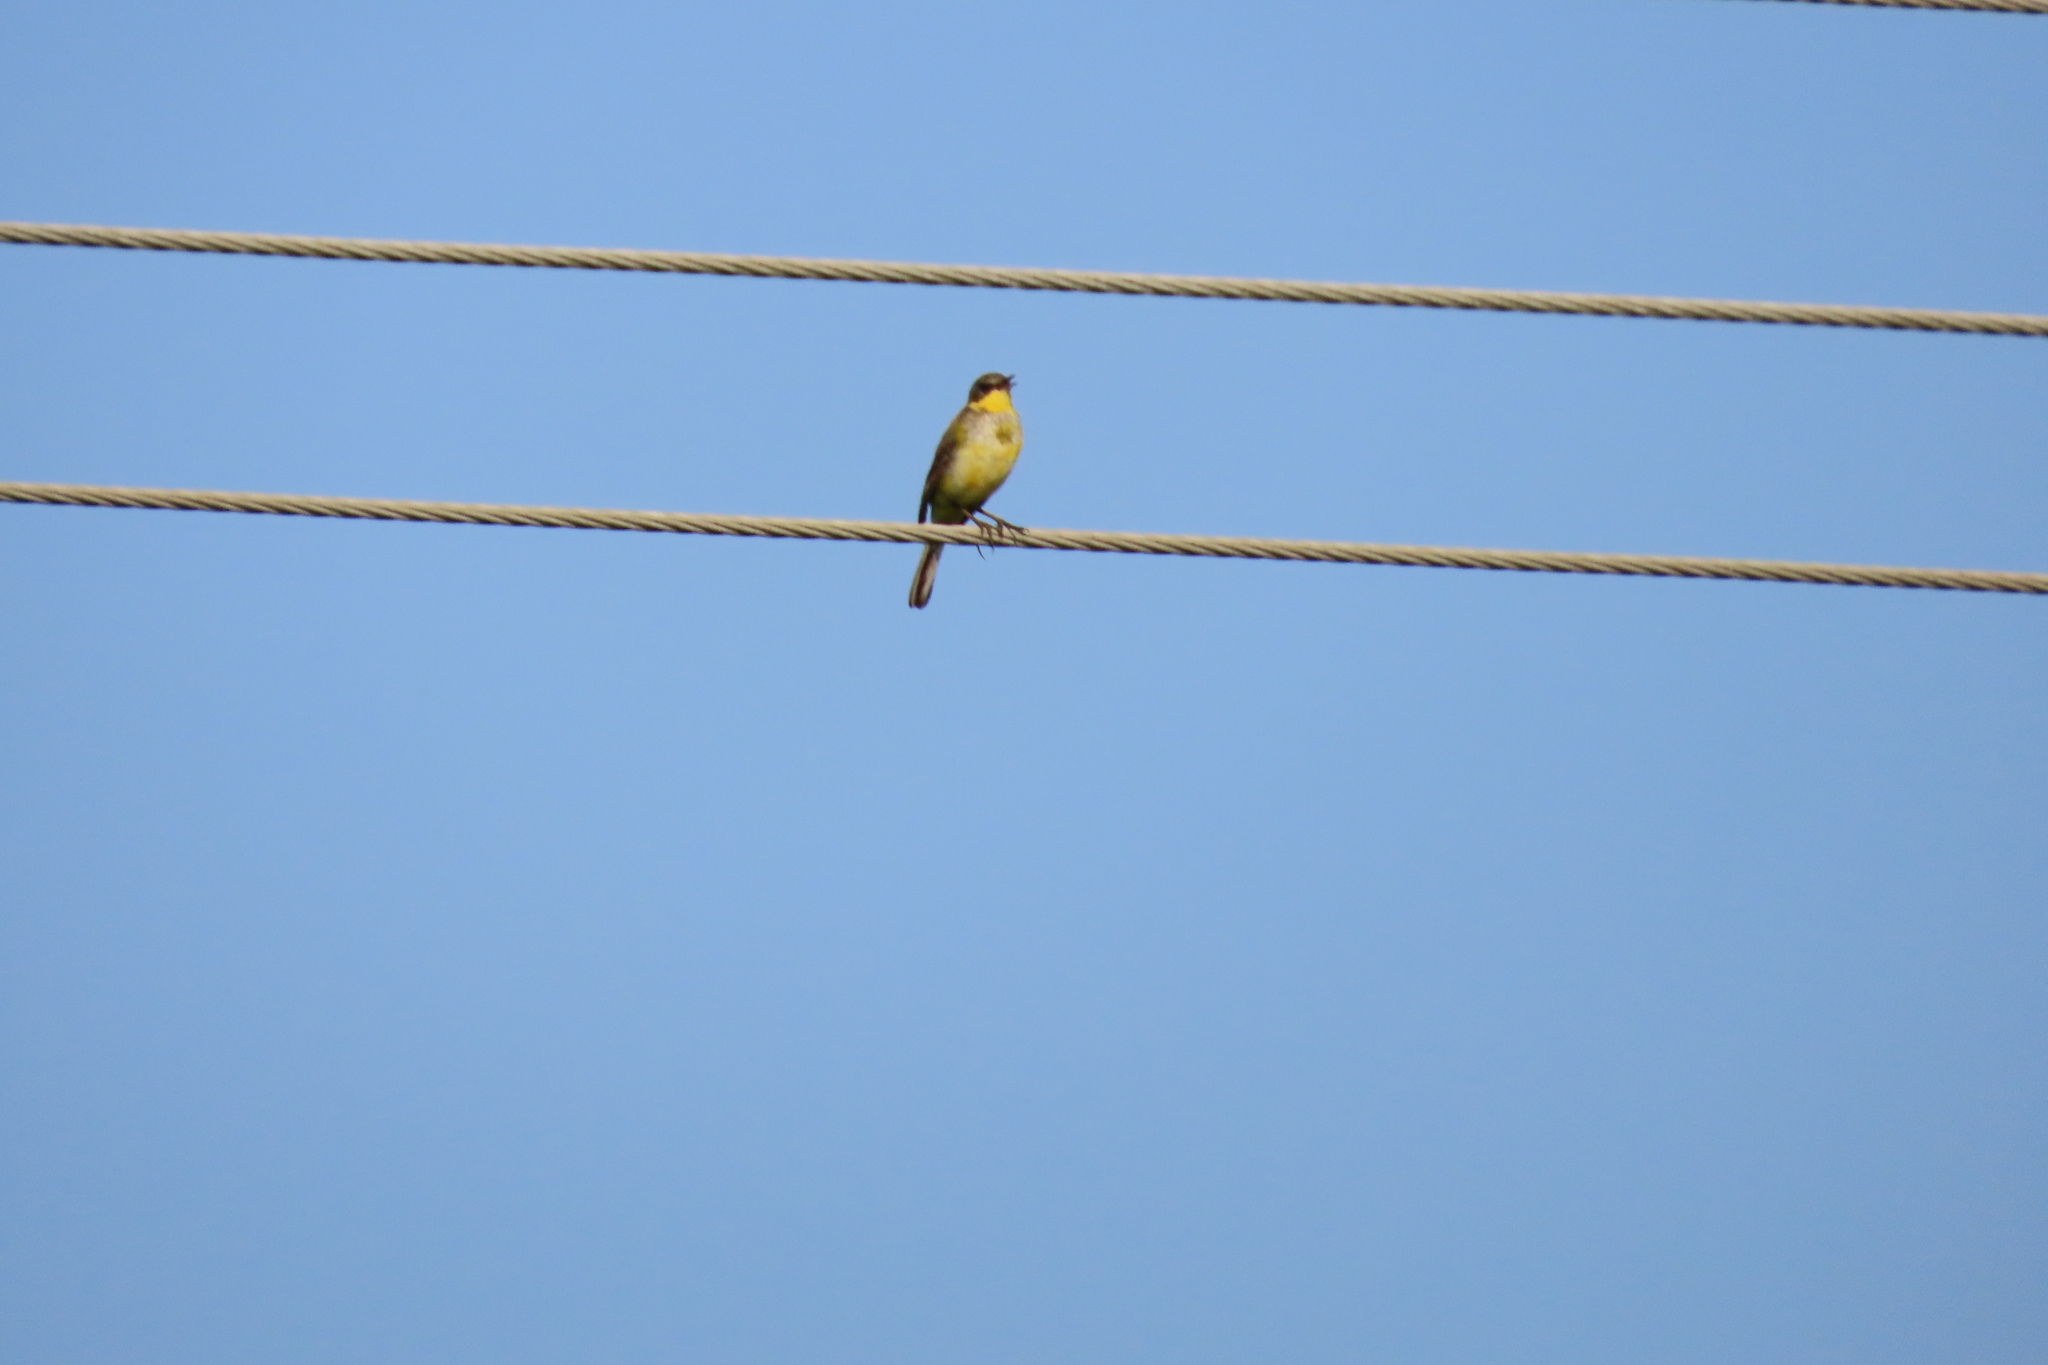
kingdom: Animalia
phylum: Chordata
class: Aves
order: Passeriformes
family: Motacillidae
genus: Motacilla
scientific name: Motacilla flava
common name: Western yellow wagtail
